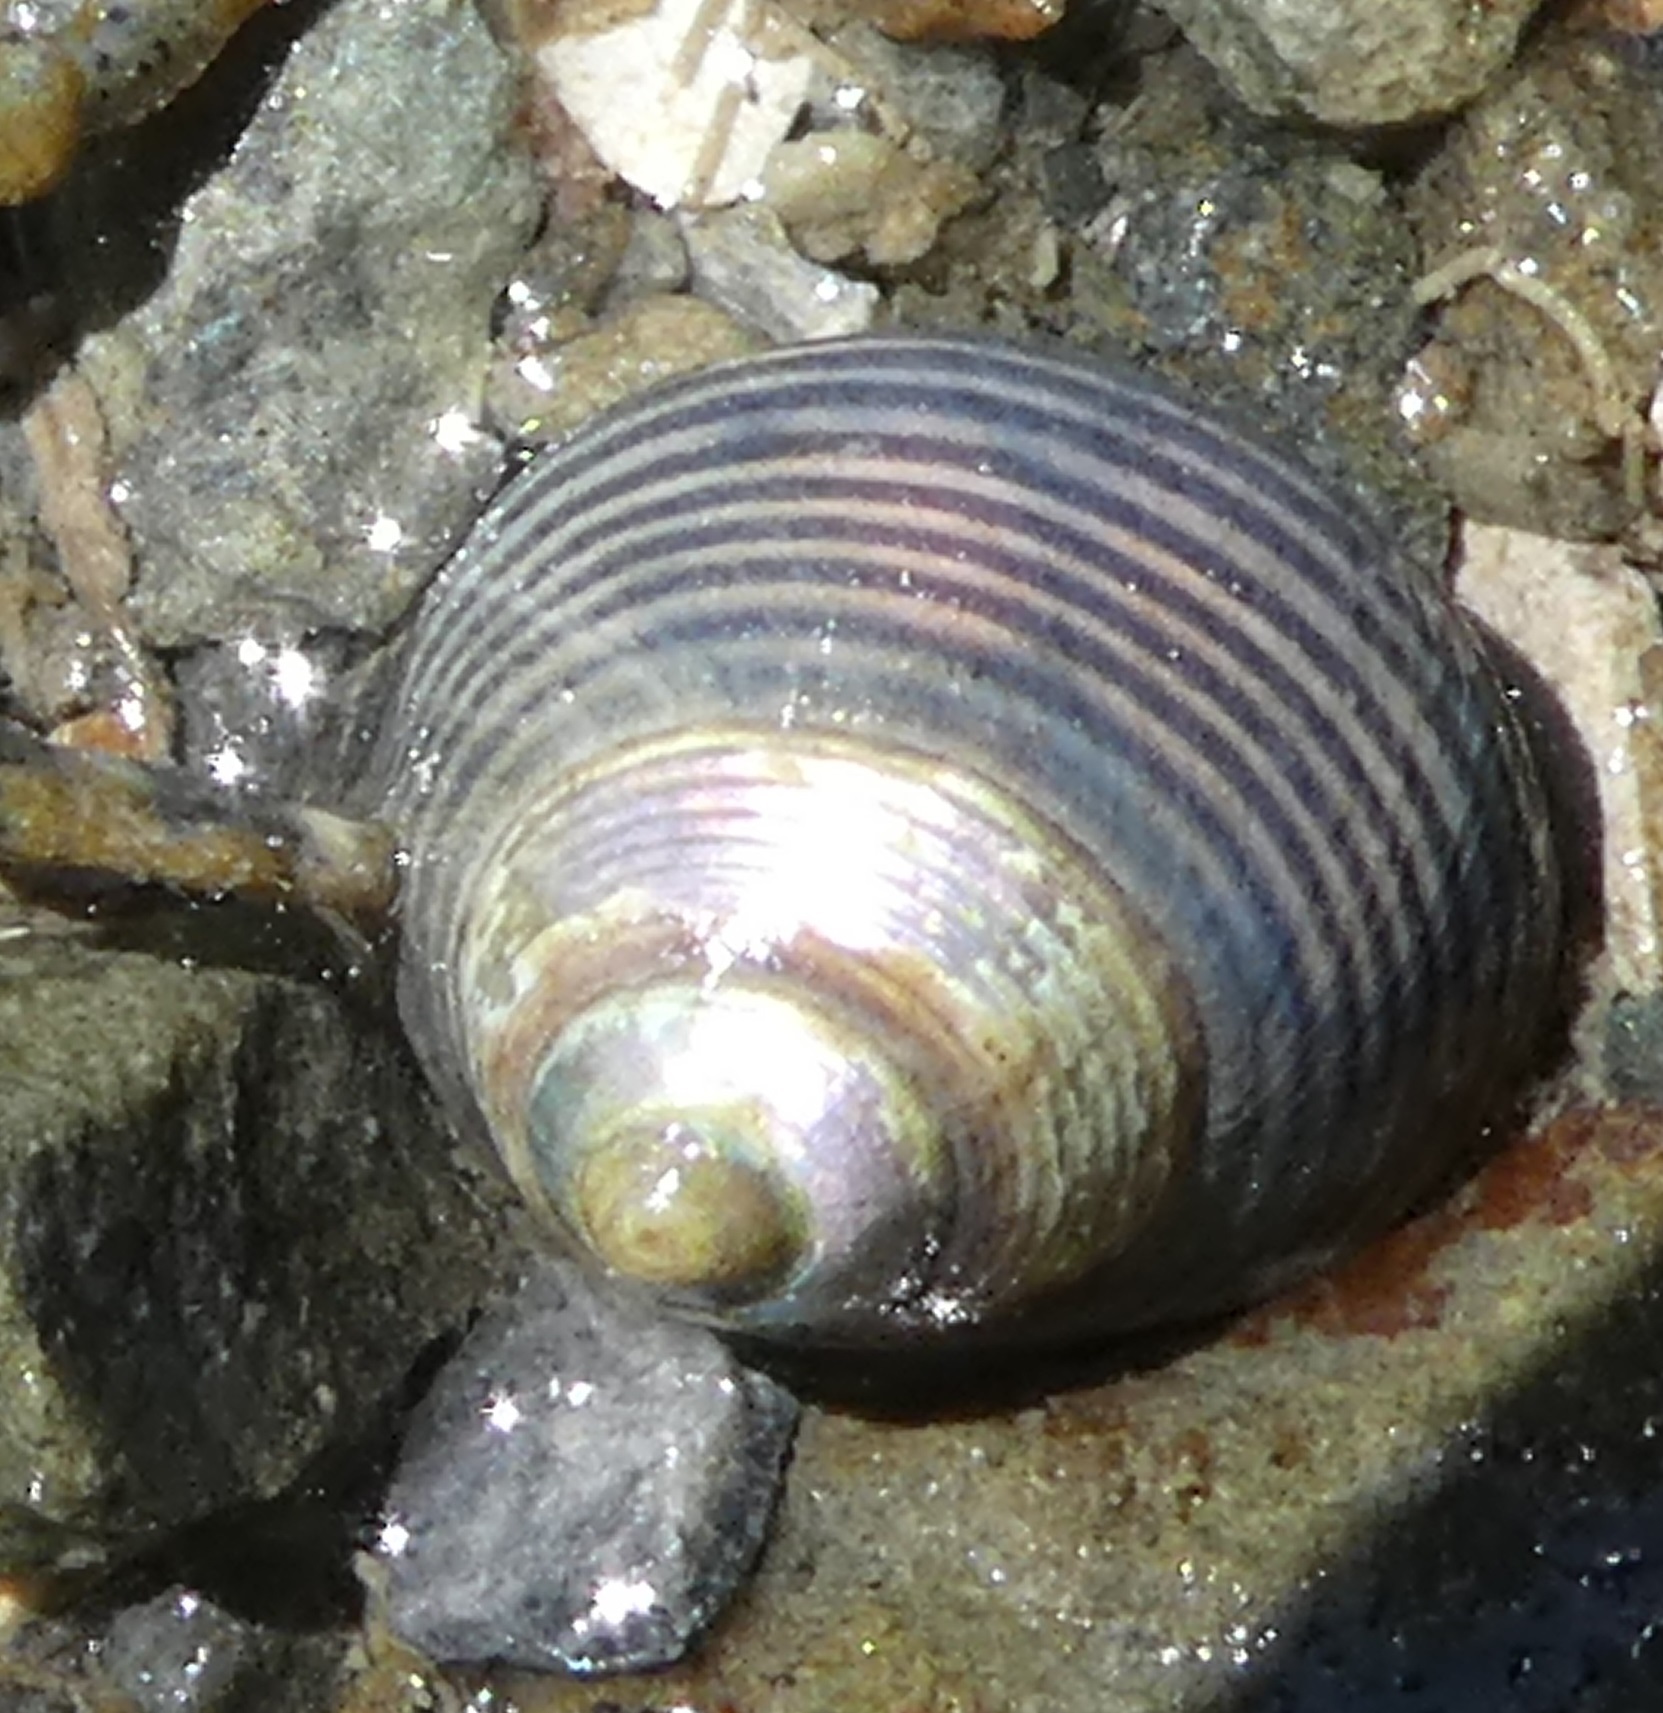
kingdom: Animalia
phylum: Mollusca
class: Gastropoda
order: Trochida
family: Trochidae
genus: Micrelenchus
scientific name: Micrelenchus huttonii
